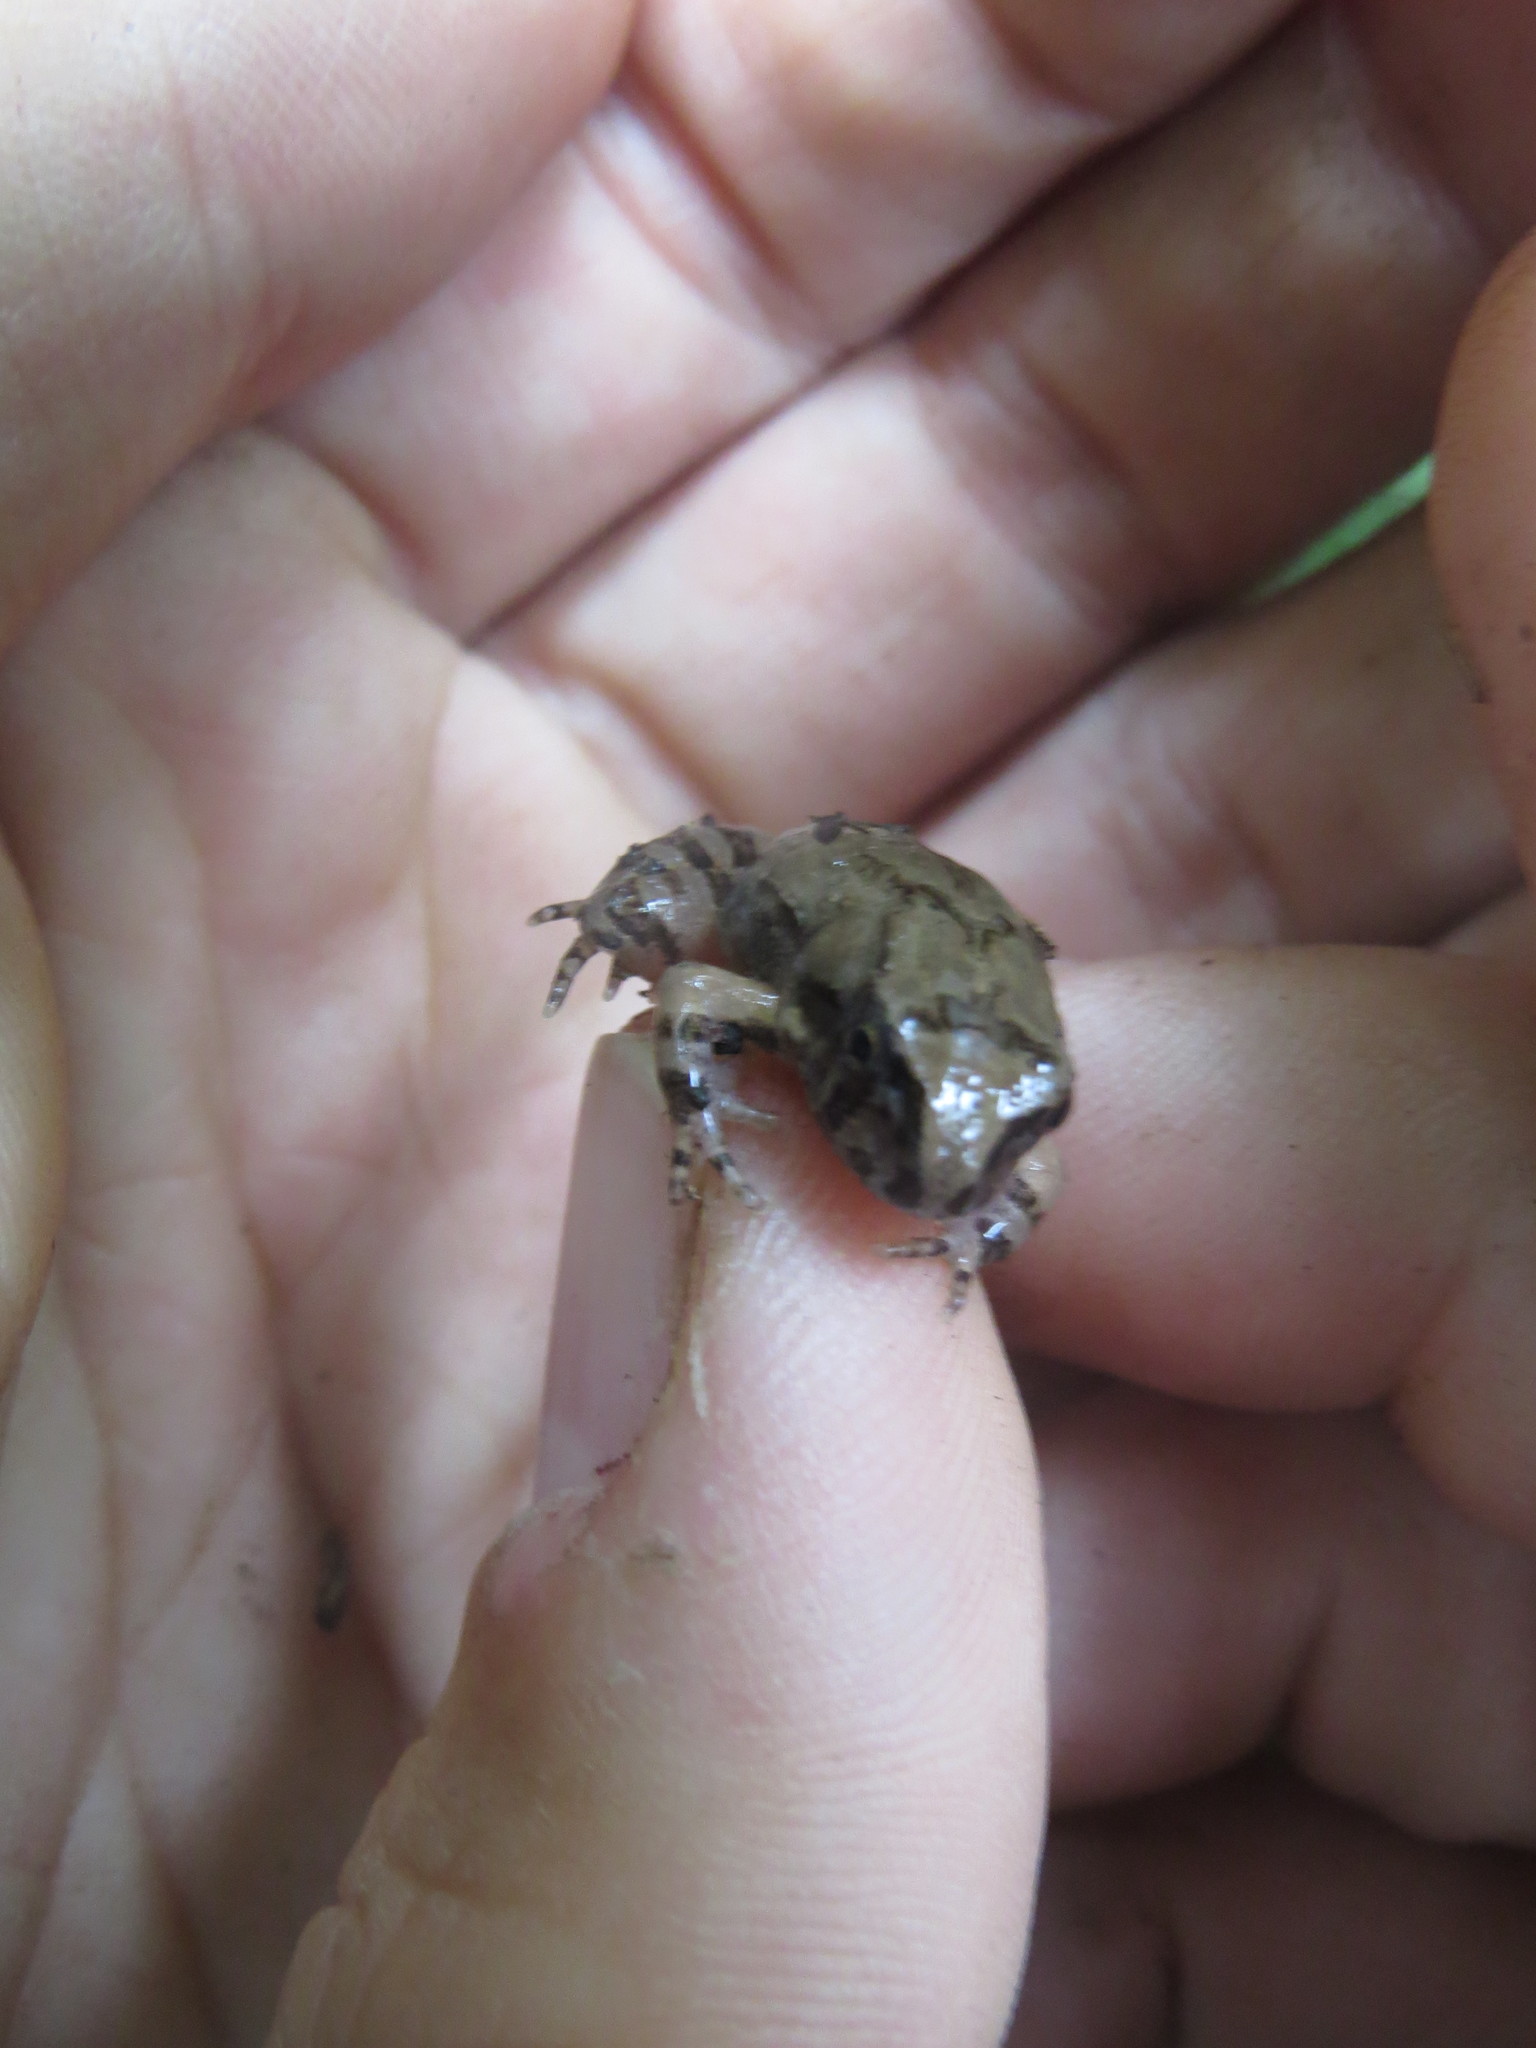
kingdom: Animalia
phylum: Chordata
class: Amphibia
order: Anura
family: Leptodactylidae
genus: Pleurodema
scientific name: Pleurodema borellii
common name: Rufous four-eyed frog
